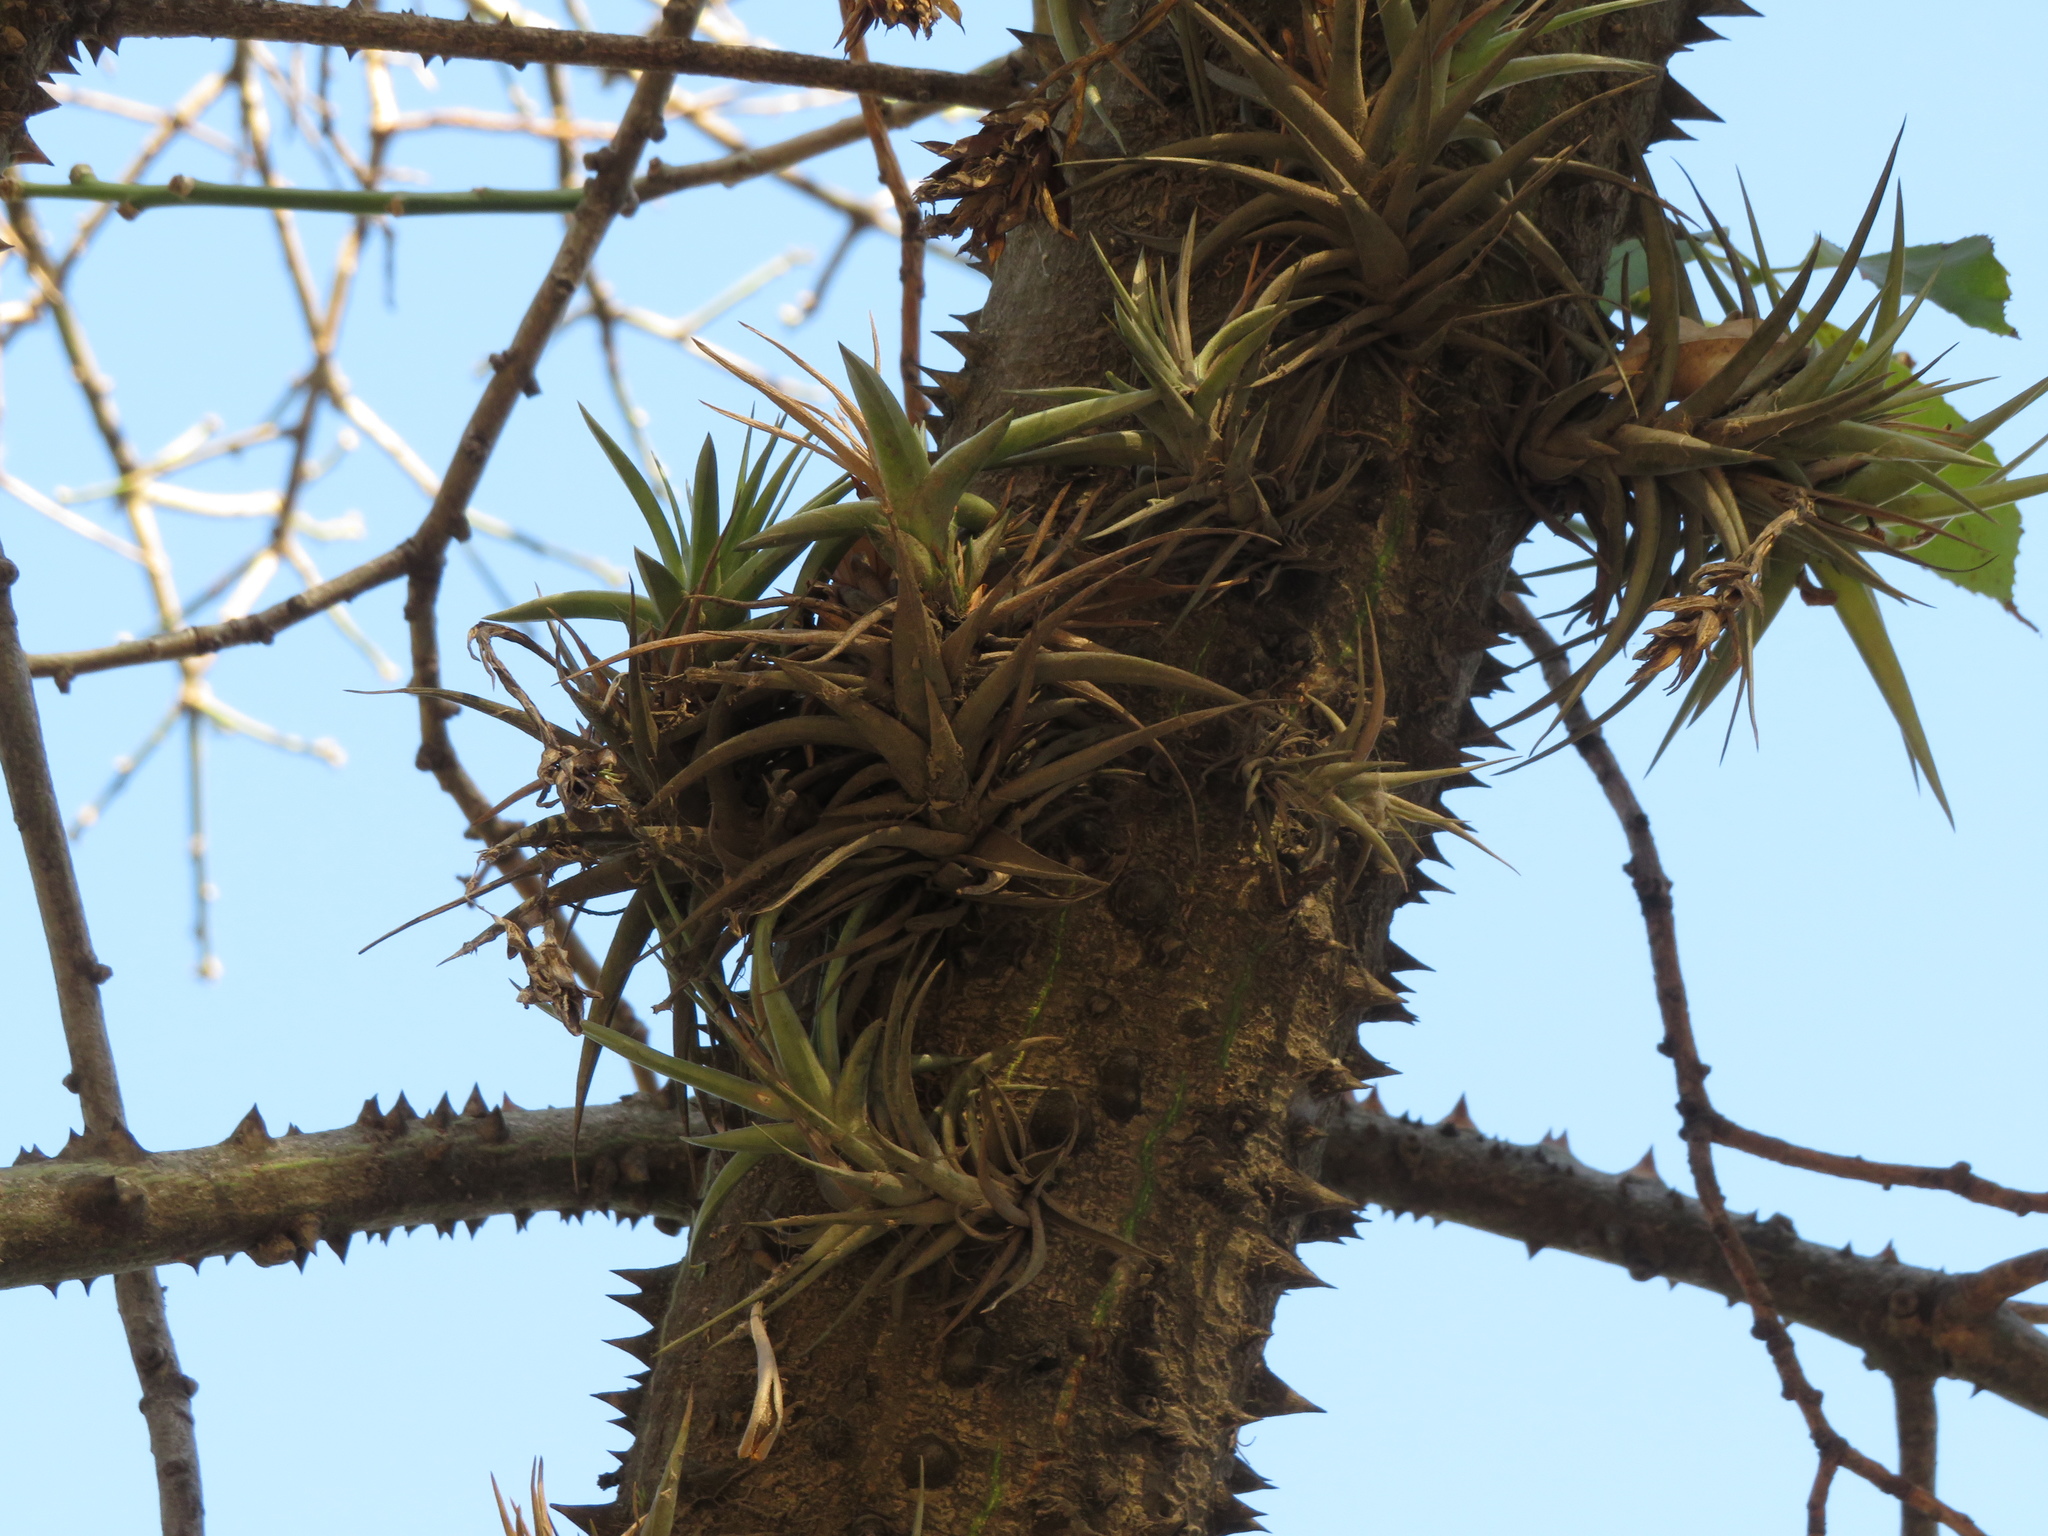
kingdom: Plantae
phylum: Tracheophyta
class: Liliopsida
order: Poales
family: Bromeliaceae
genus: Tillandsia
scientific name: Tillandsia aeranthos
